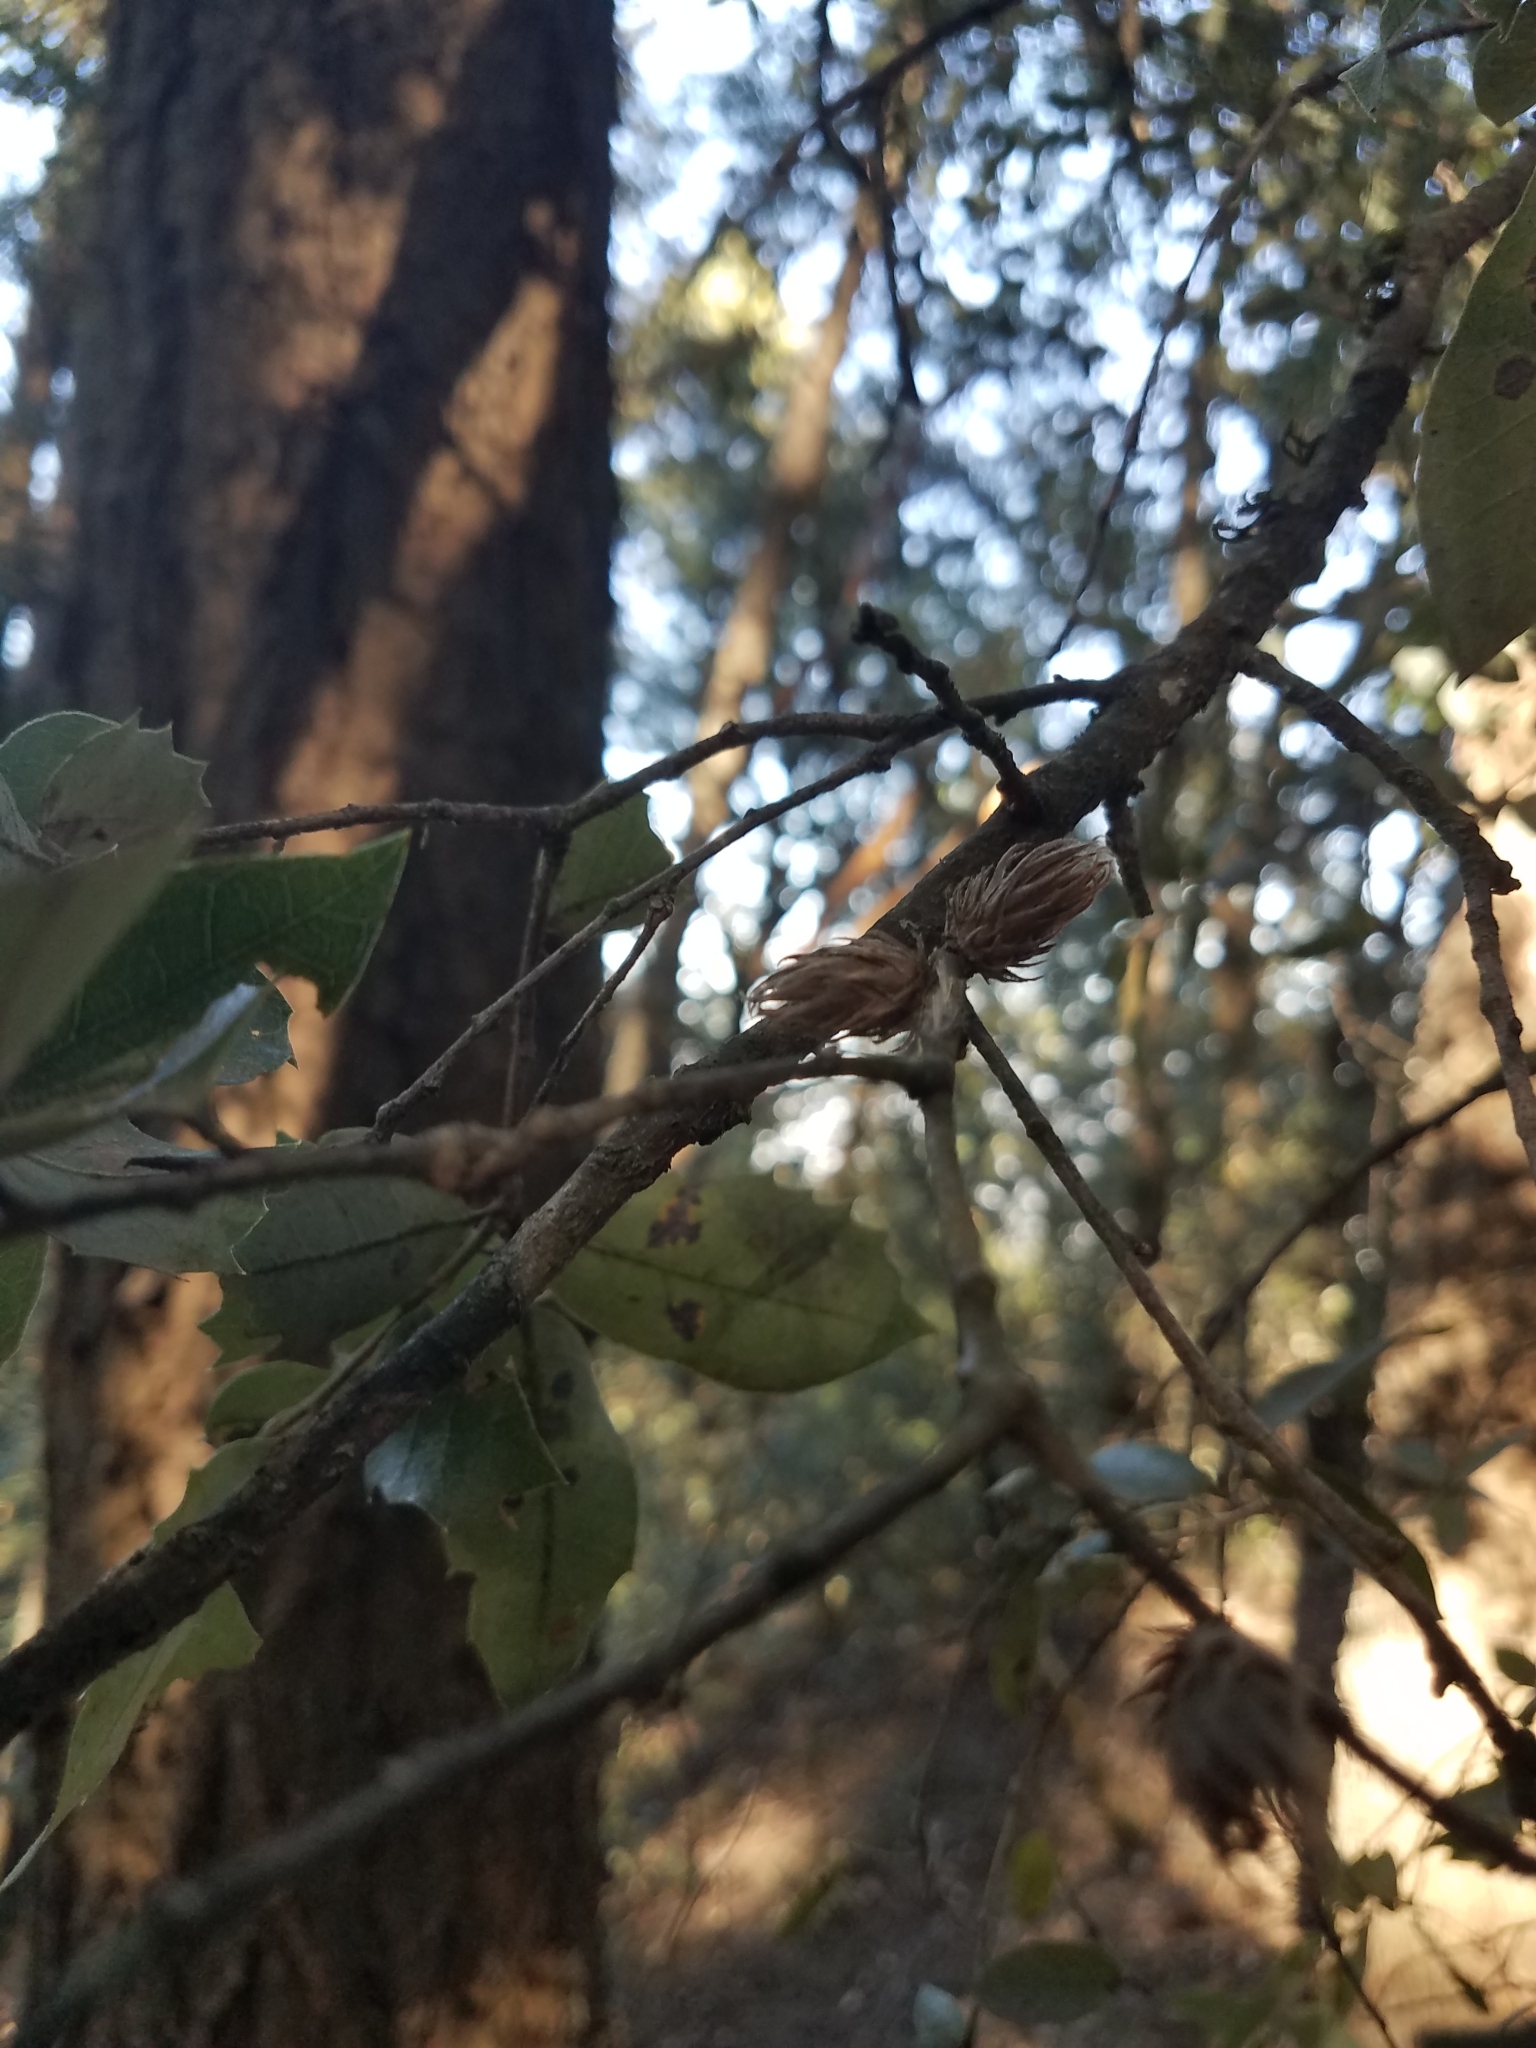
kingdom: Animalia
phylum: Arthropoda
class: Insecta
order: Hymenoptera
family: Cynipidae
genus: Andricus
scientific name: Andricus
